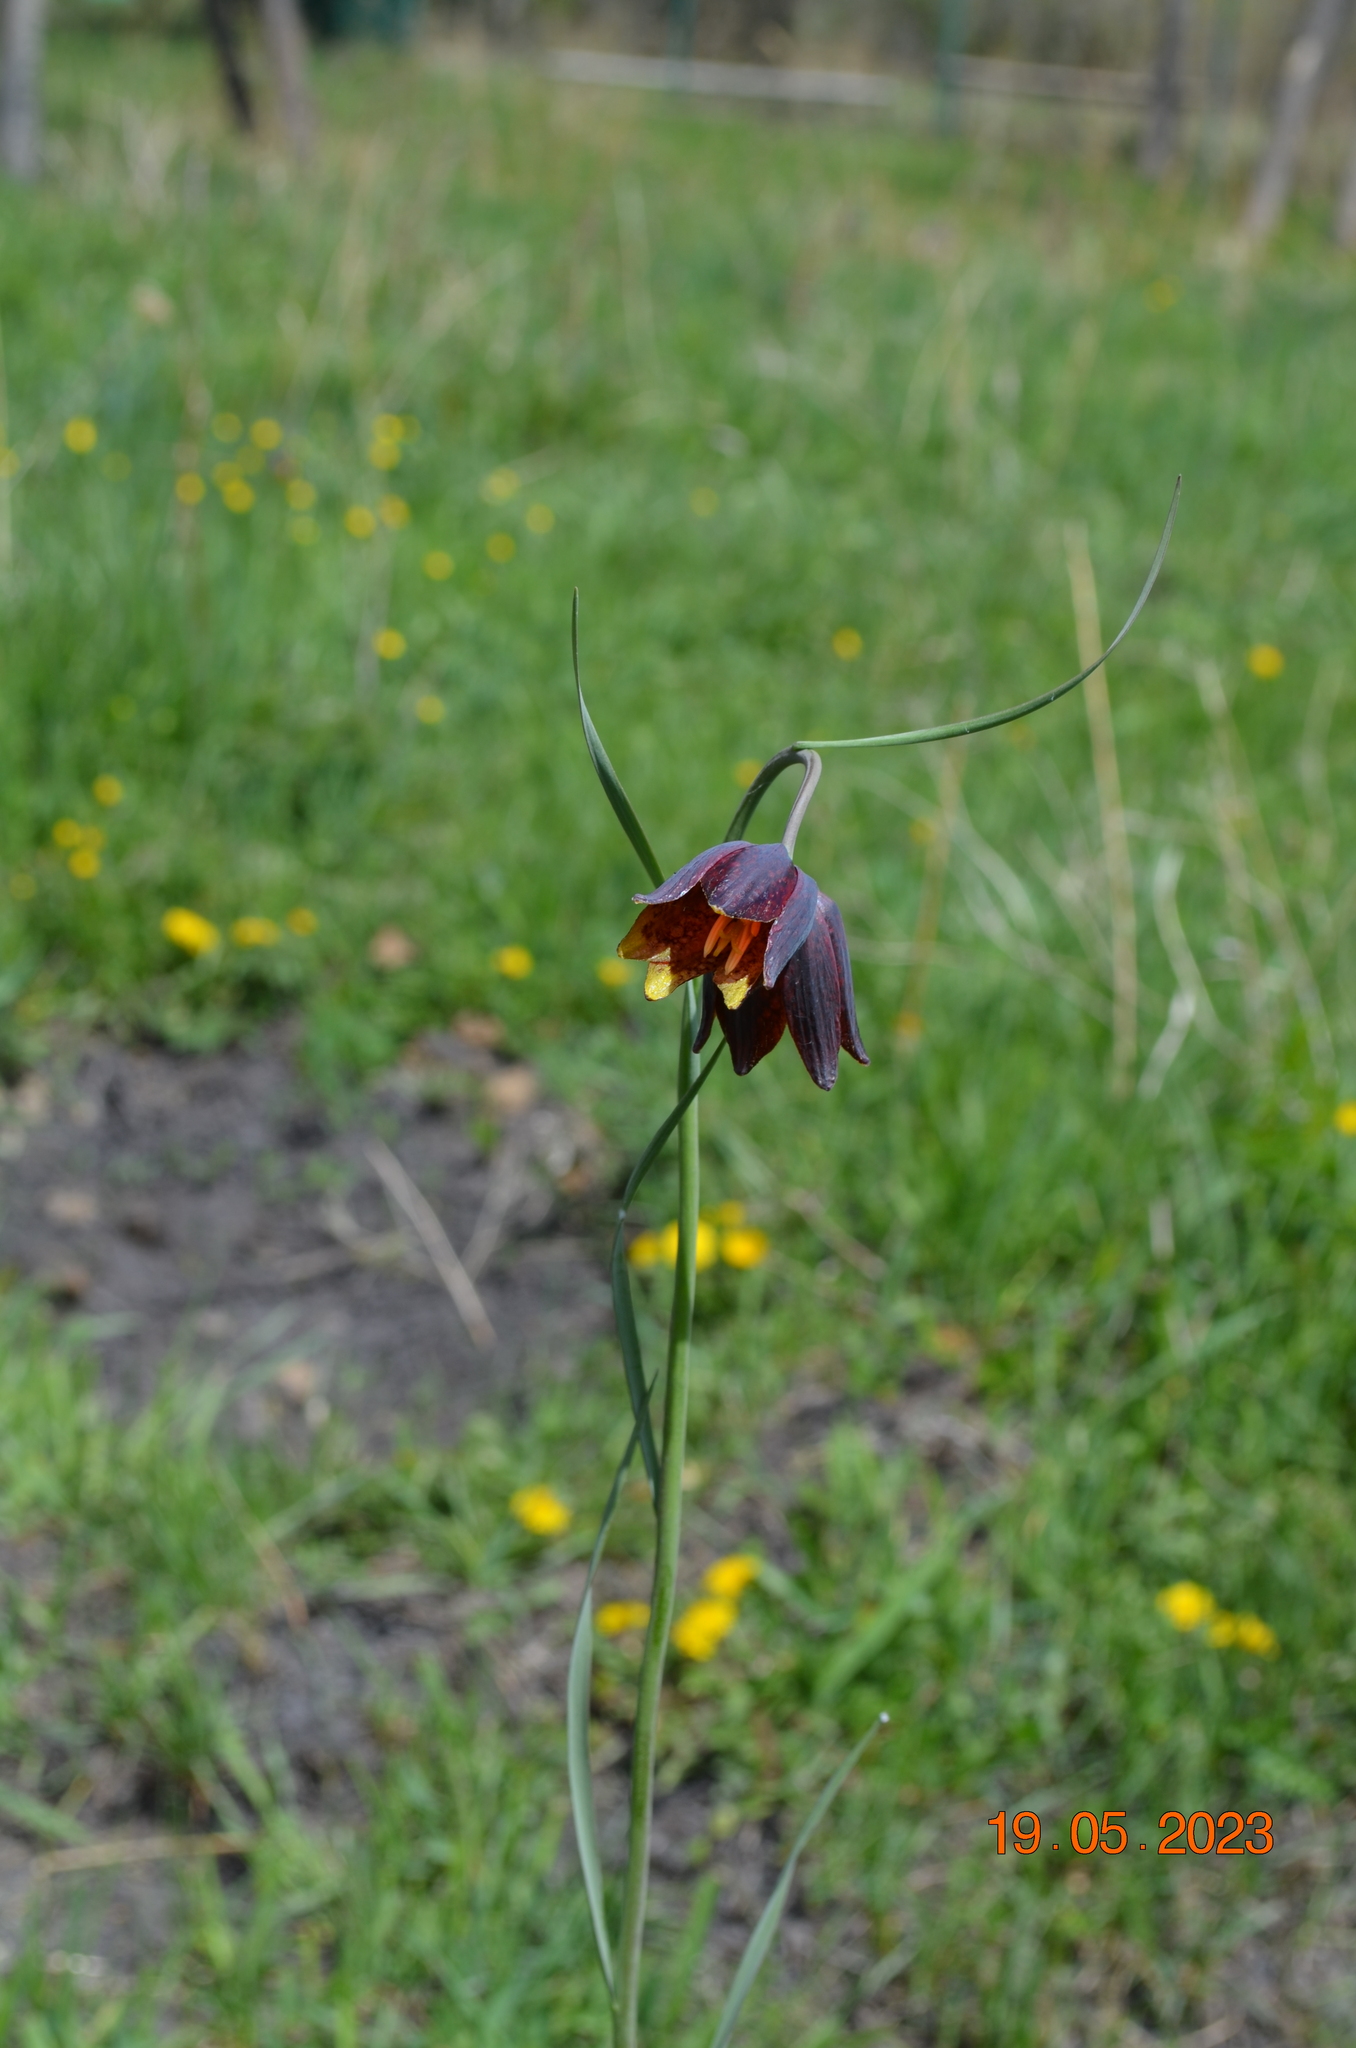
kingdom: Plantae
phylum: Tracheophyta
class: Liliopsida
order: Liliales
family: Liliaceae
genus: Fritillaria
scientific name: Fritillaria meleagroides
